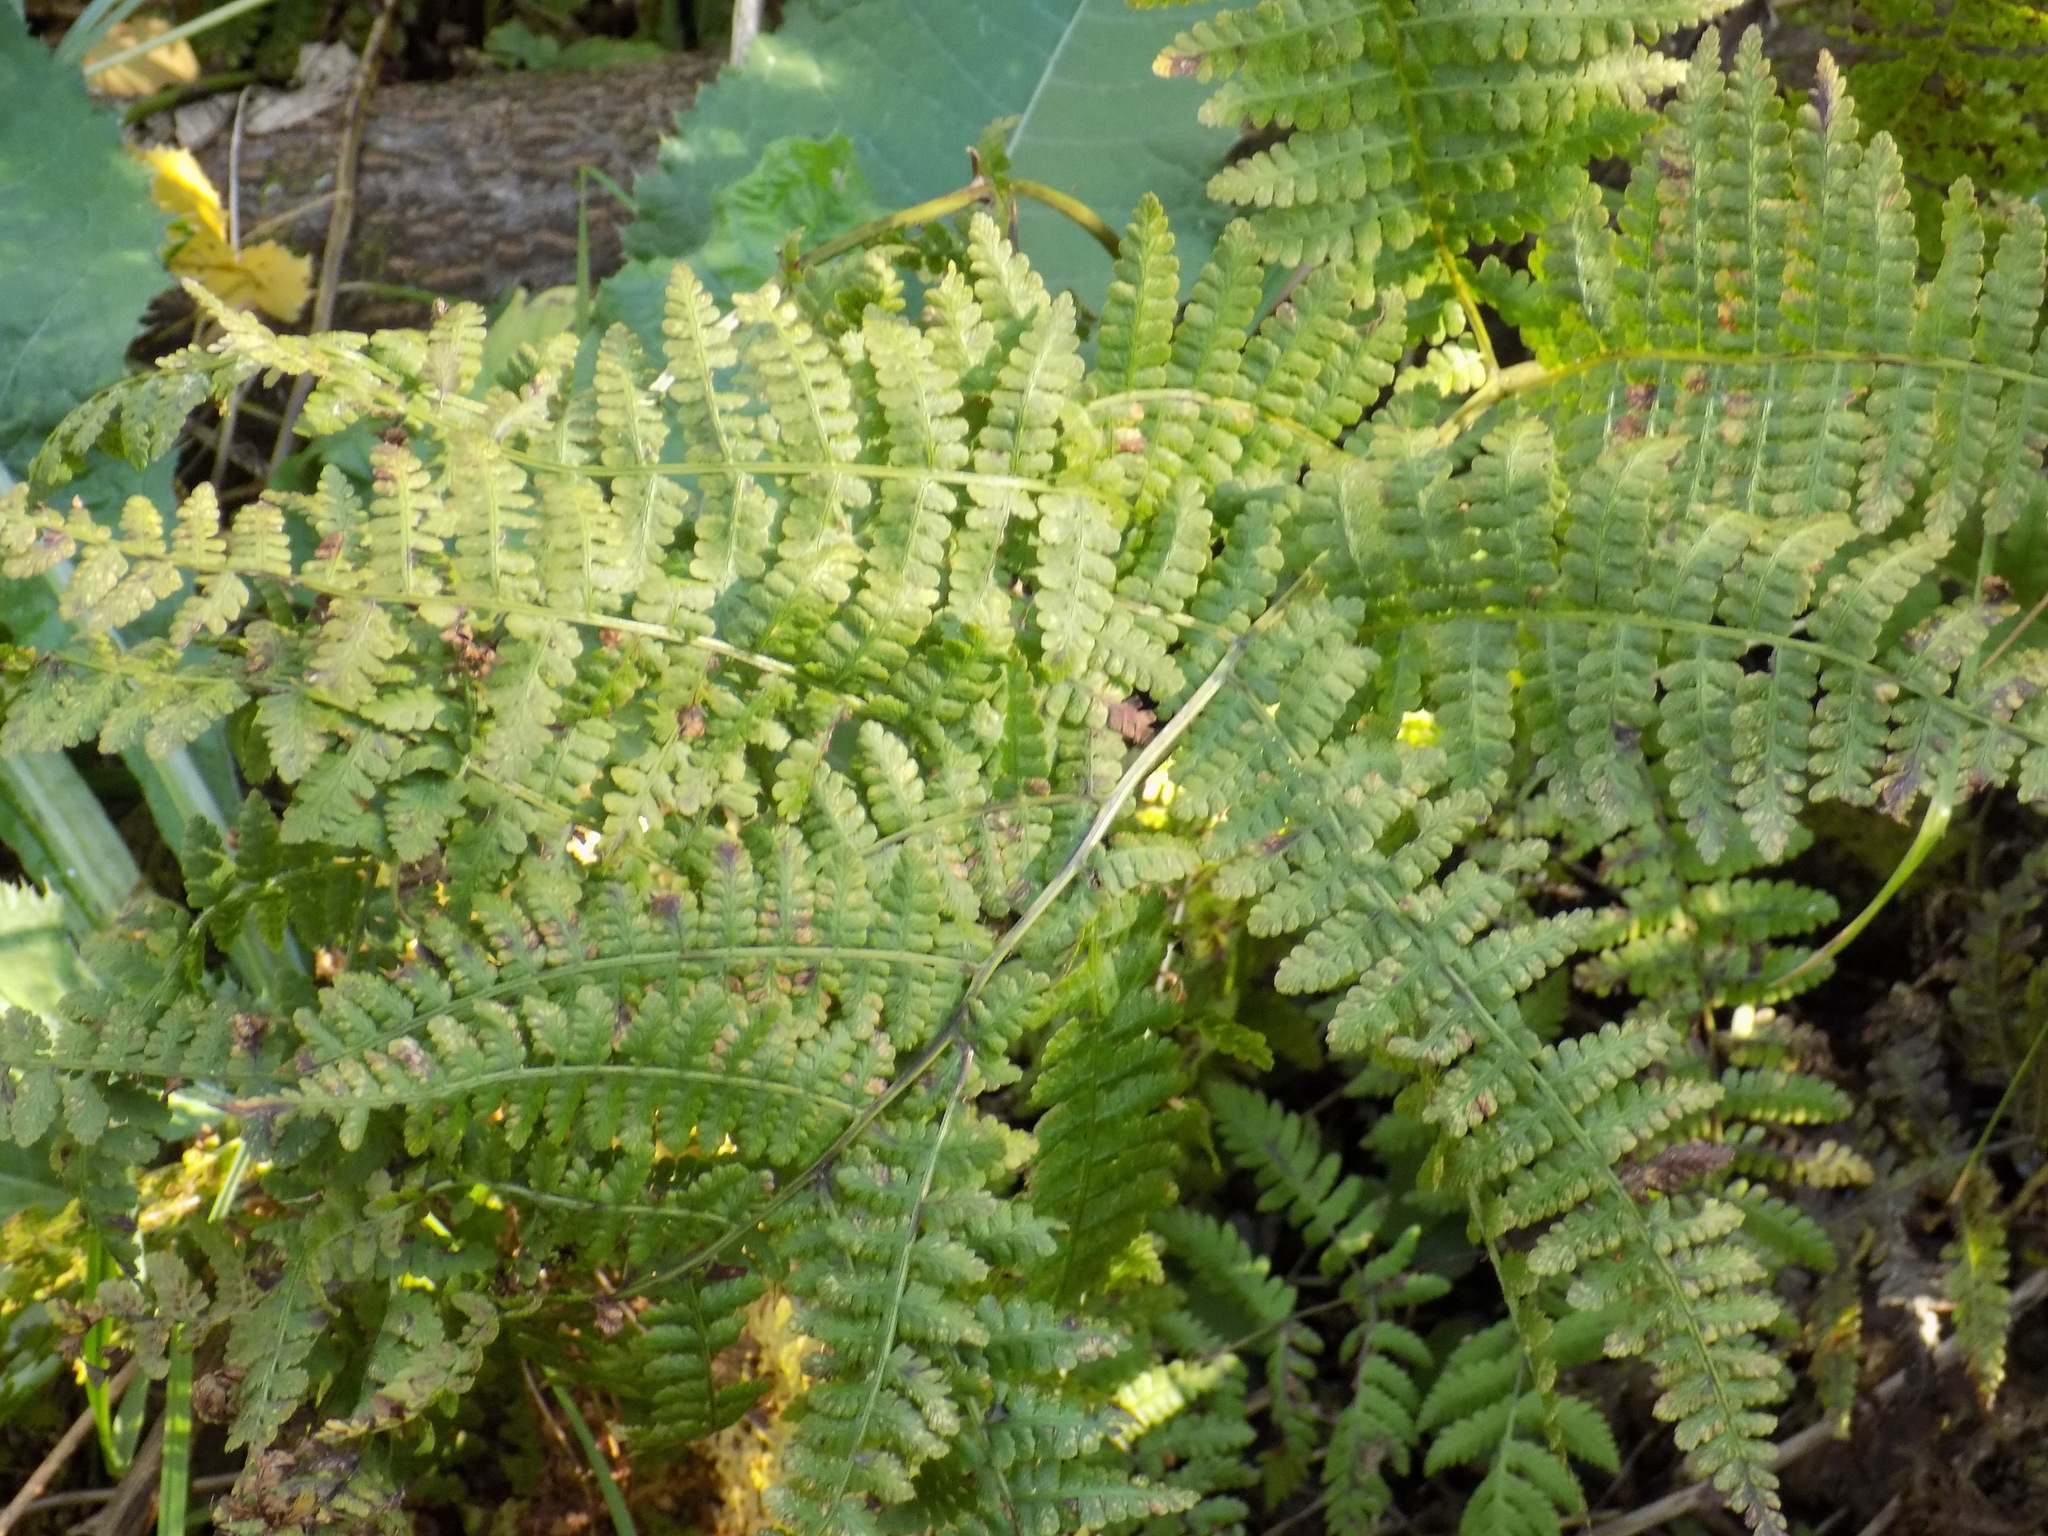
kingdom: Plantae
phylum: Tracheophyta
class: Polypodiopsida
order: Polypodiales
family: Athyriaceae
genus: Diplazium
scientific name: Diplazium sibiricum
